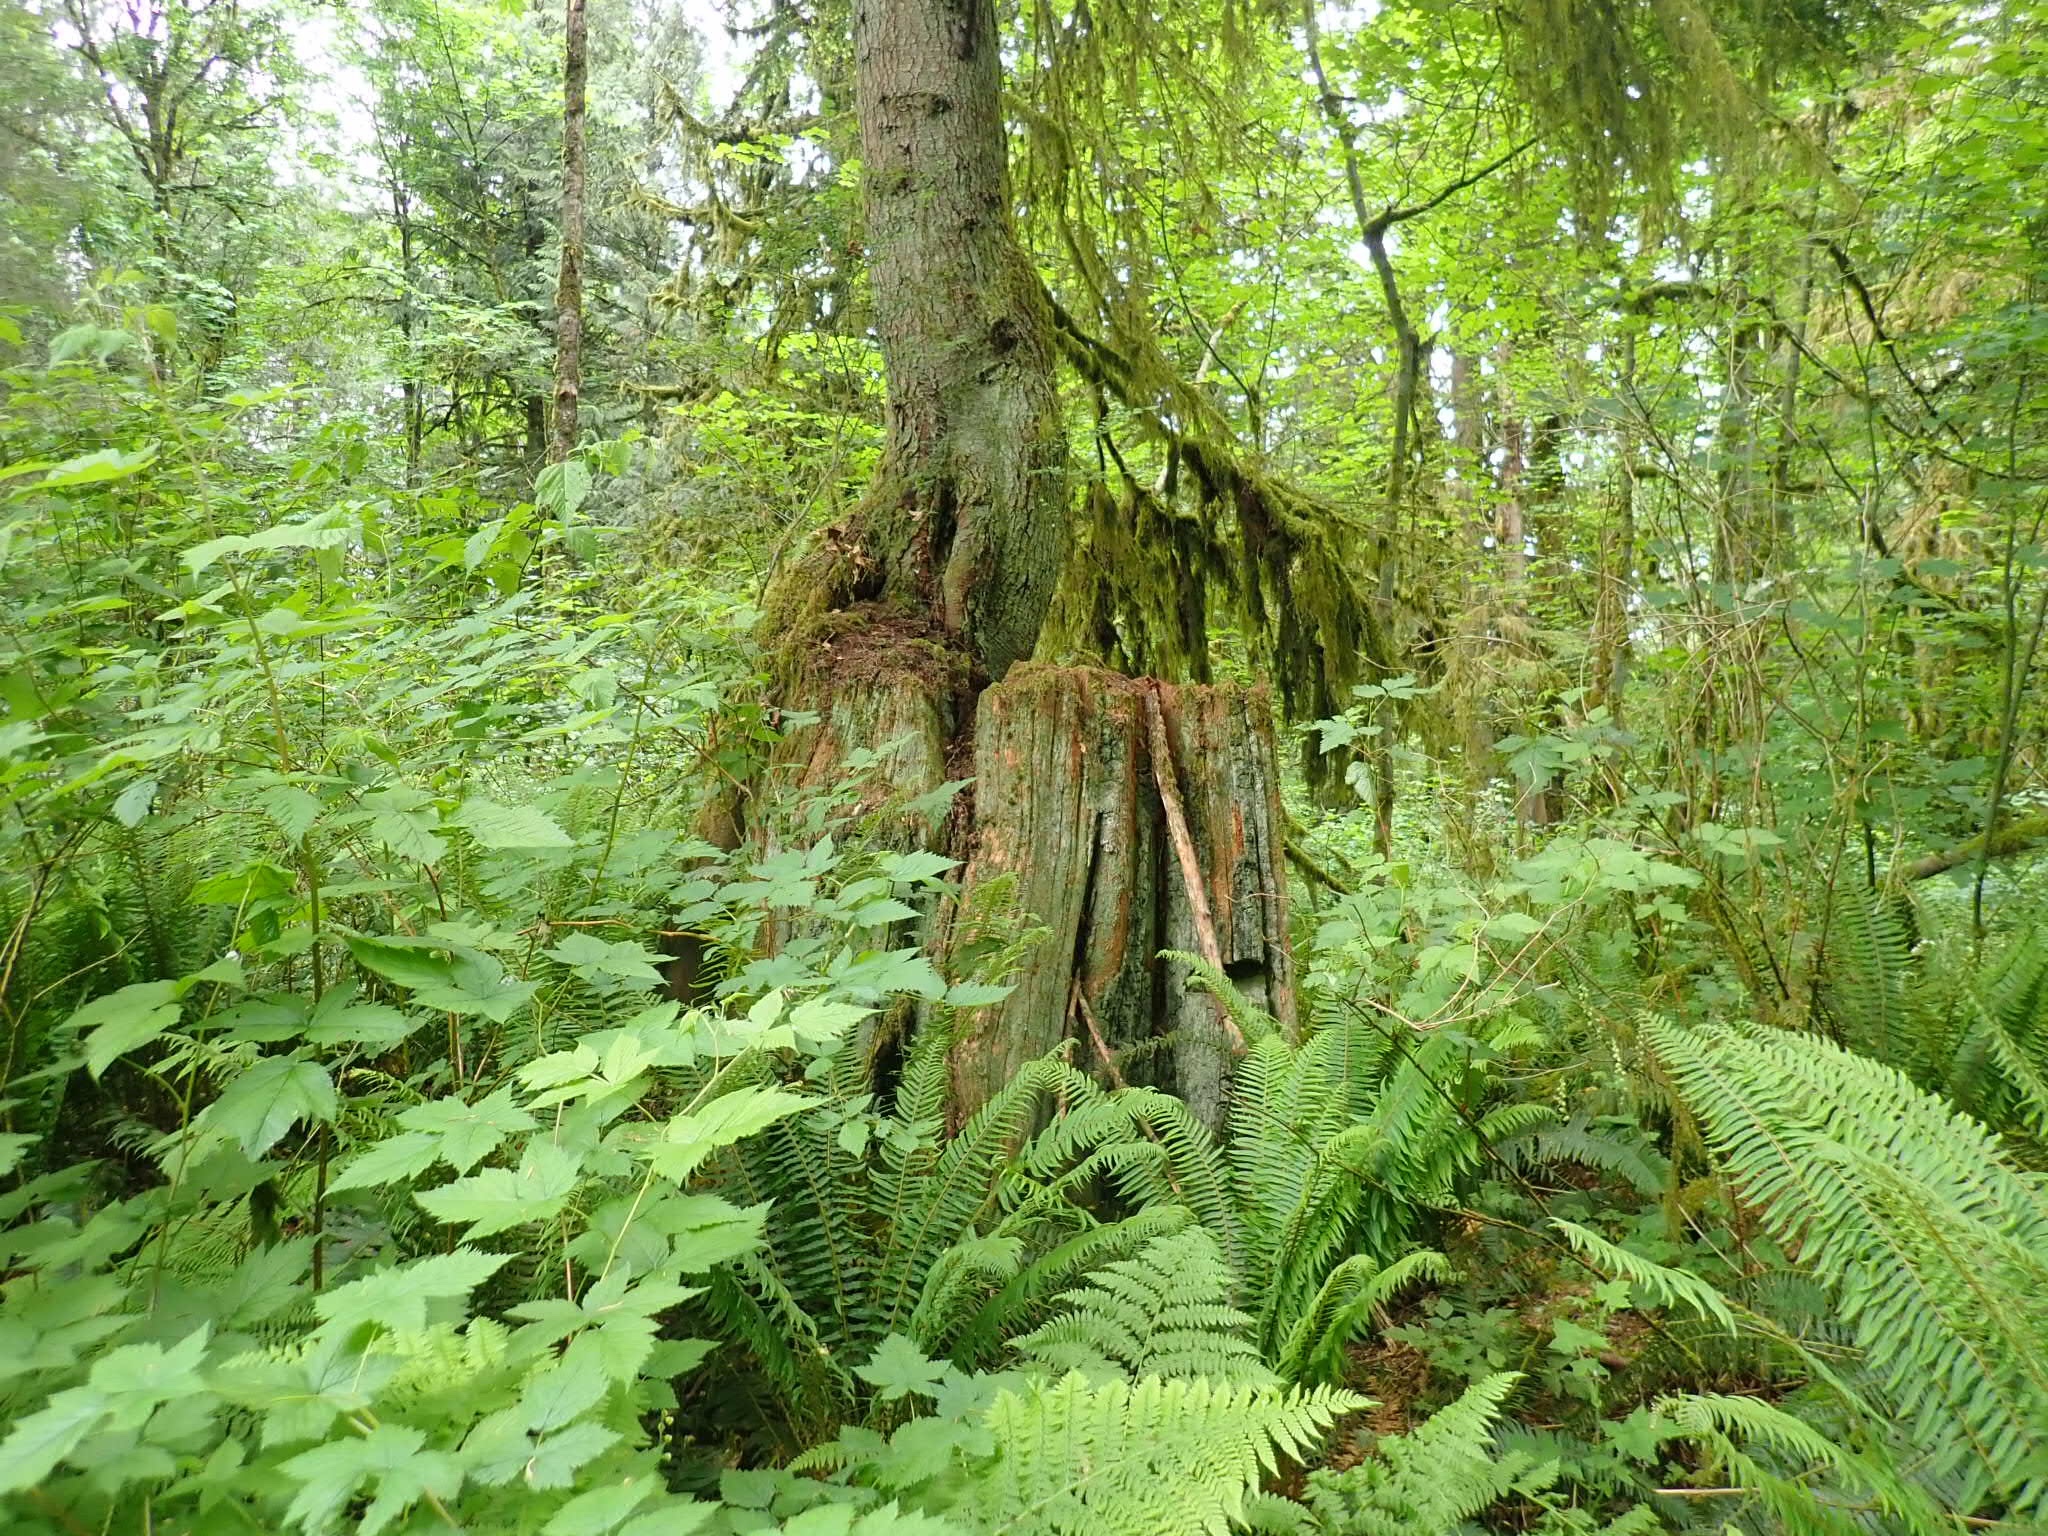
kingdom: Plantae
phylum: Tracheophyta
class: Pinopsida
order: Pinales
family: Pinaceae
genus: Tsuga
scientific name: Tsuga heterophylla
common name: Western hemlock
